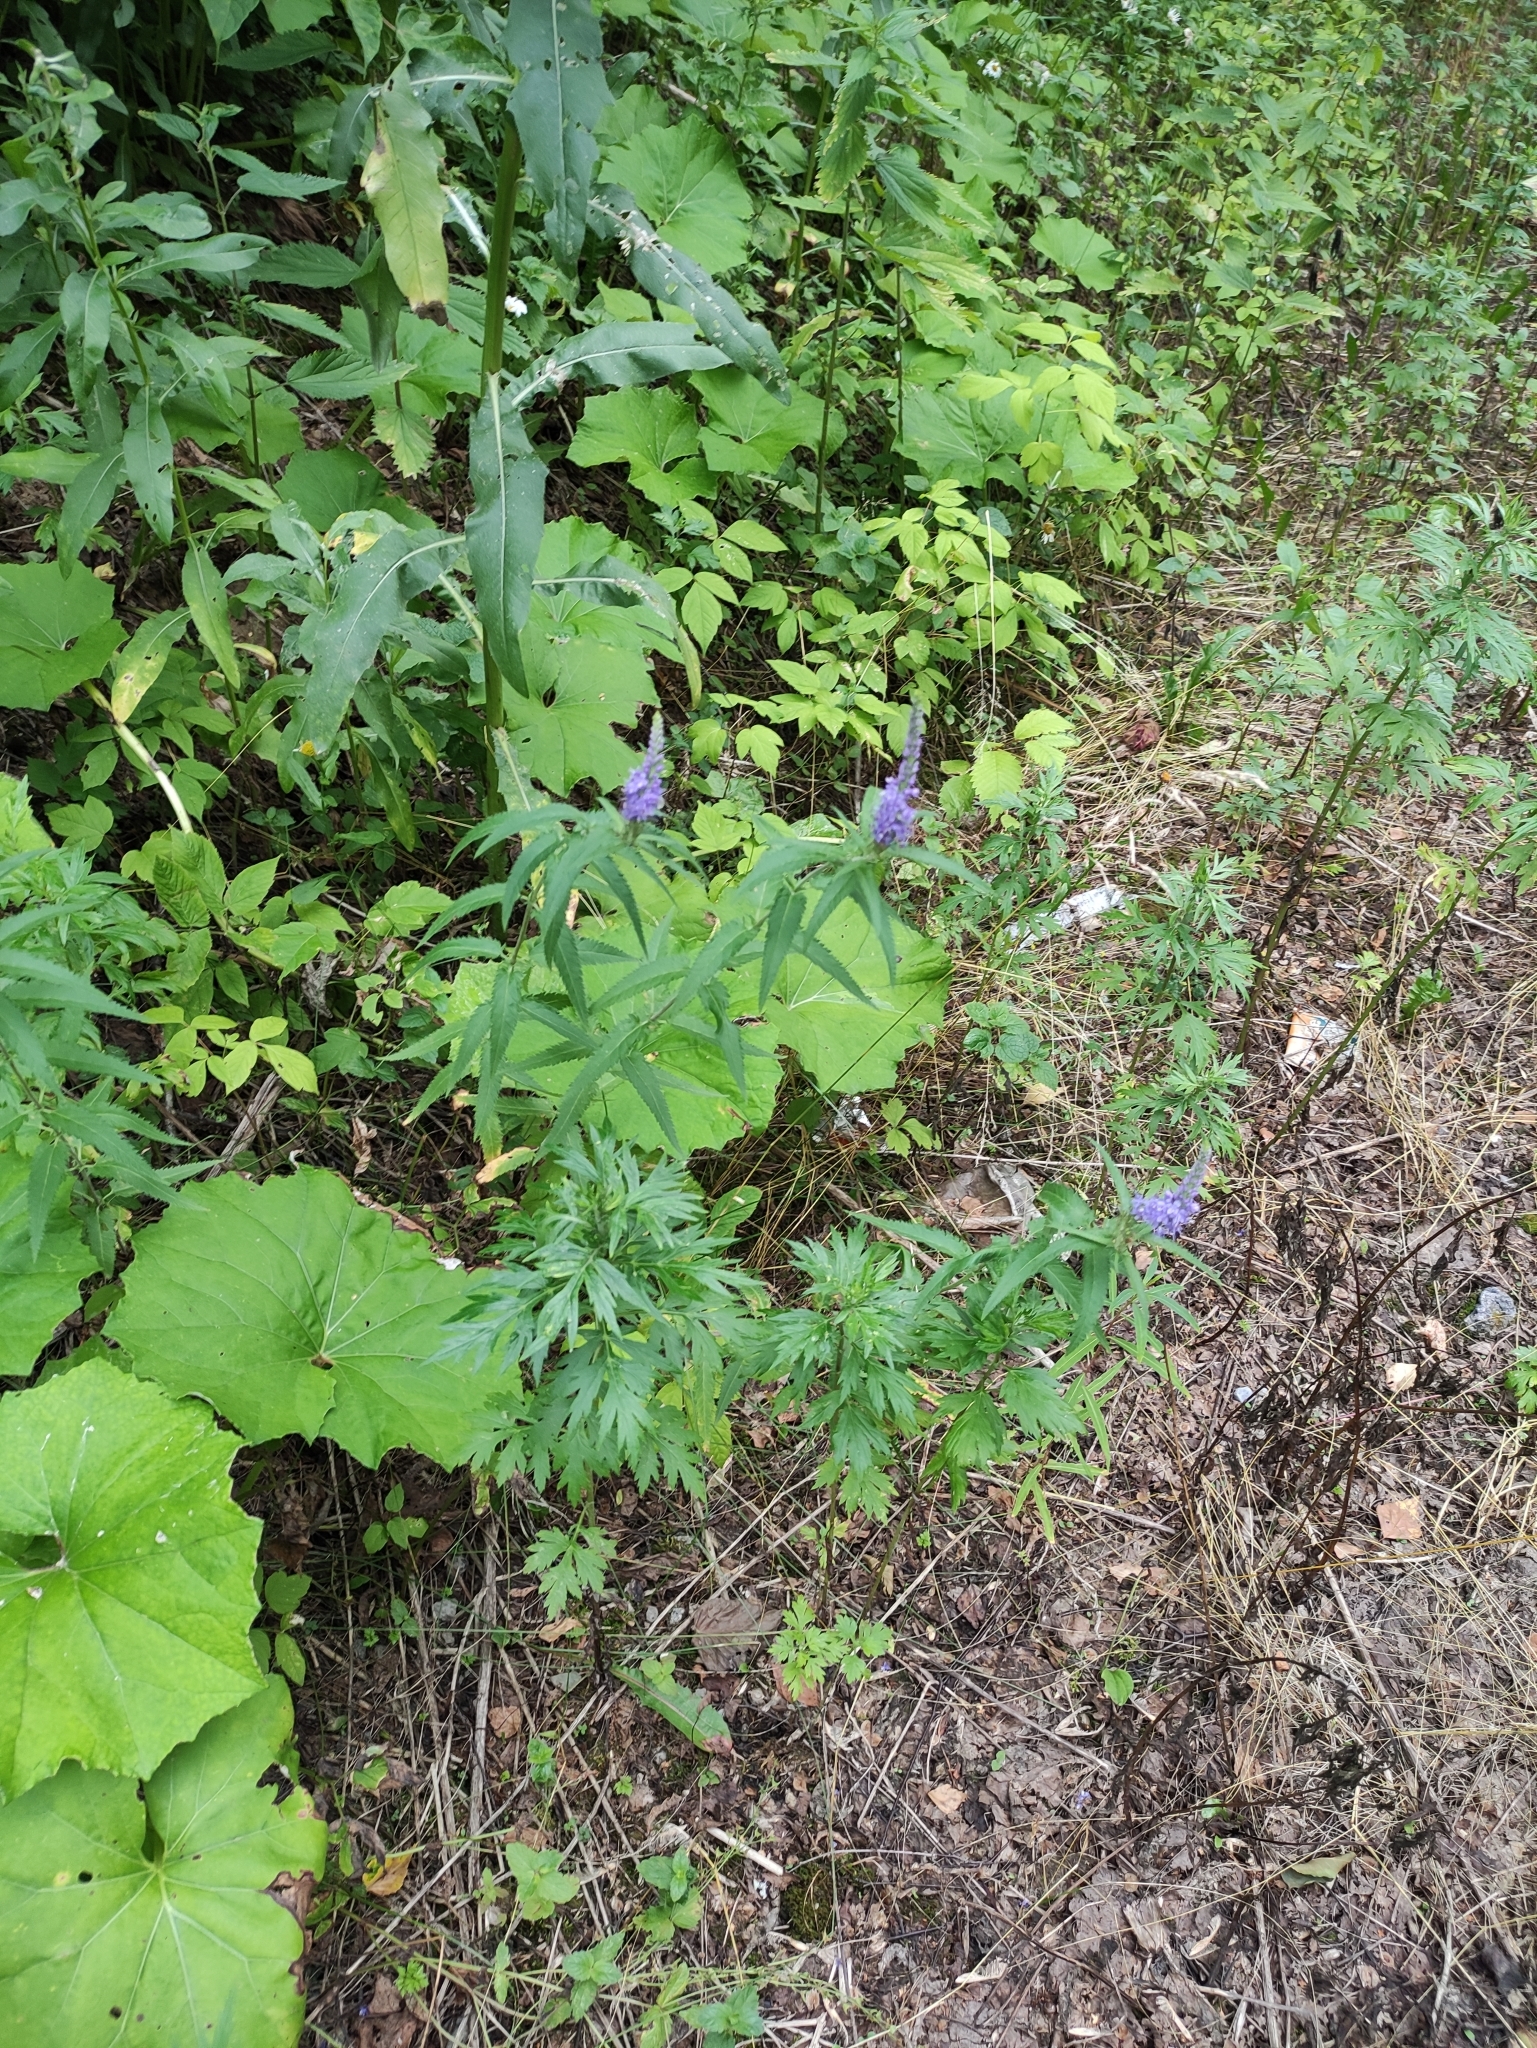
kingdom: Plantae
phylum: Tracheophyta
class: Magnoliopsida
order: Lamiales
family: Plantaginaceae
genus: Veronica
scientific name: Veronica longifolia
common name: Garden speedwell
